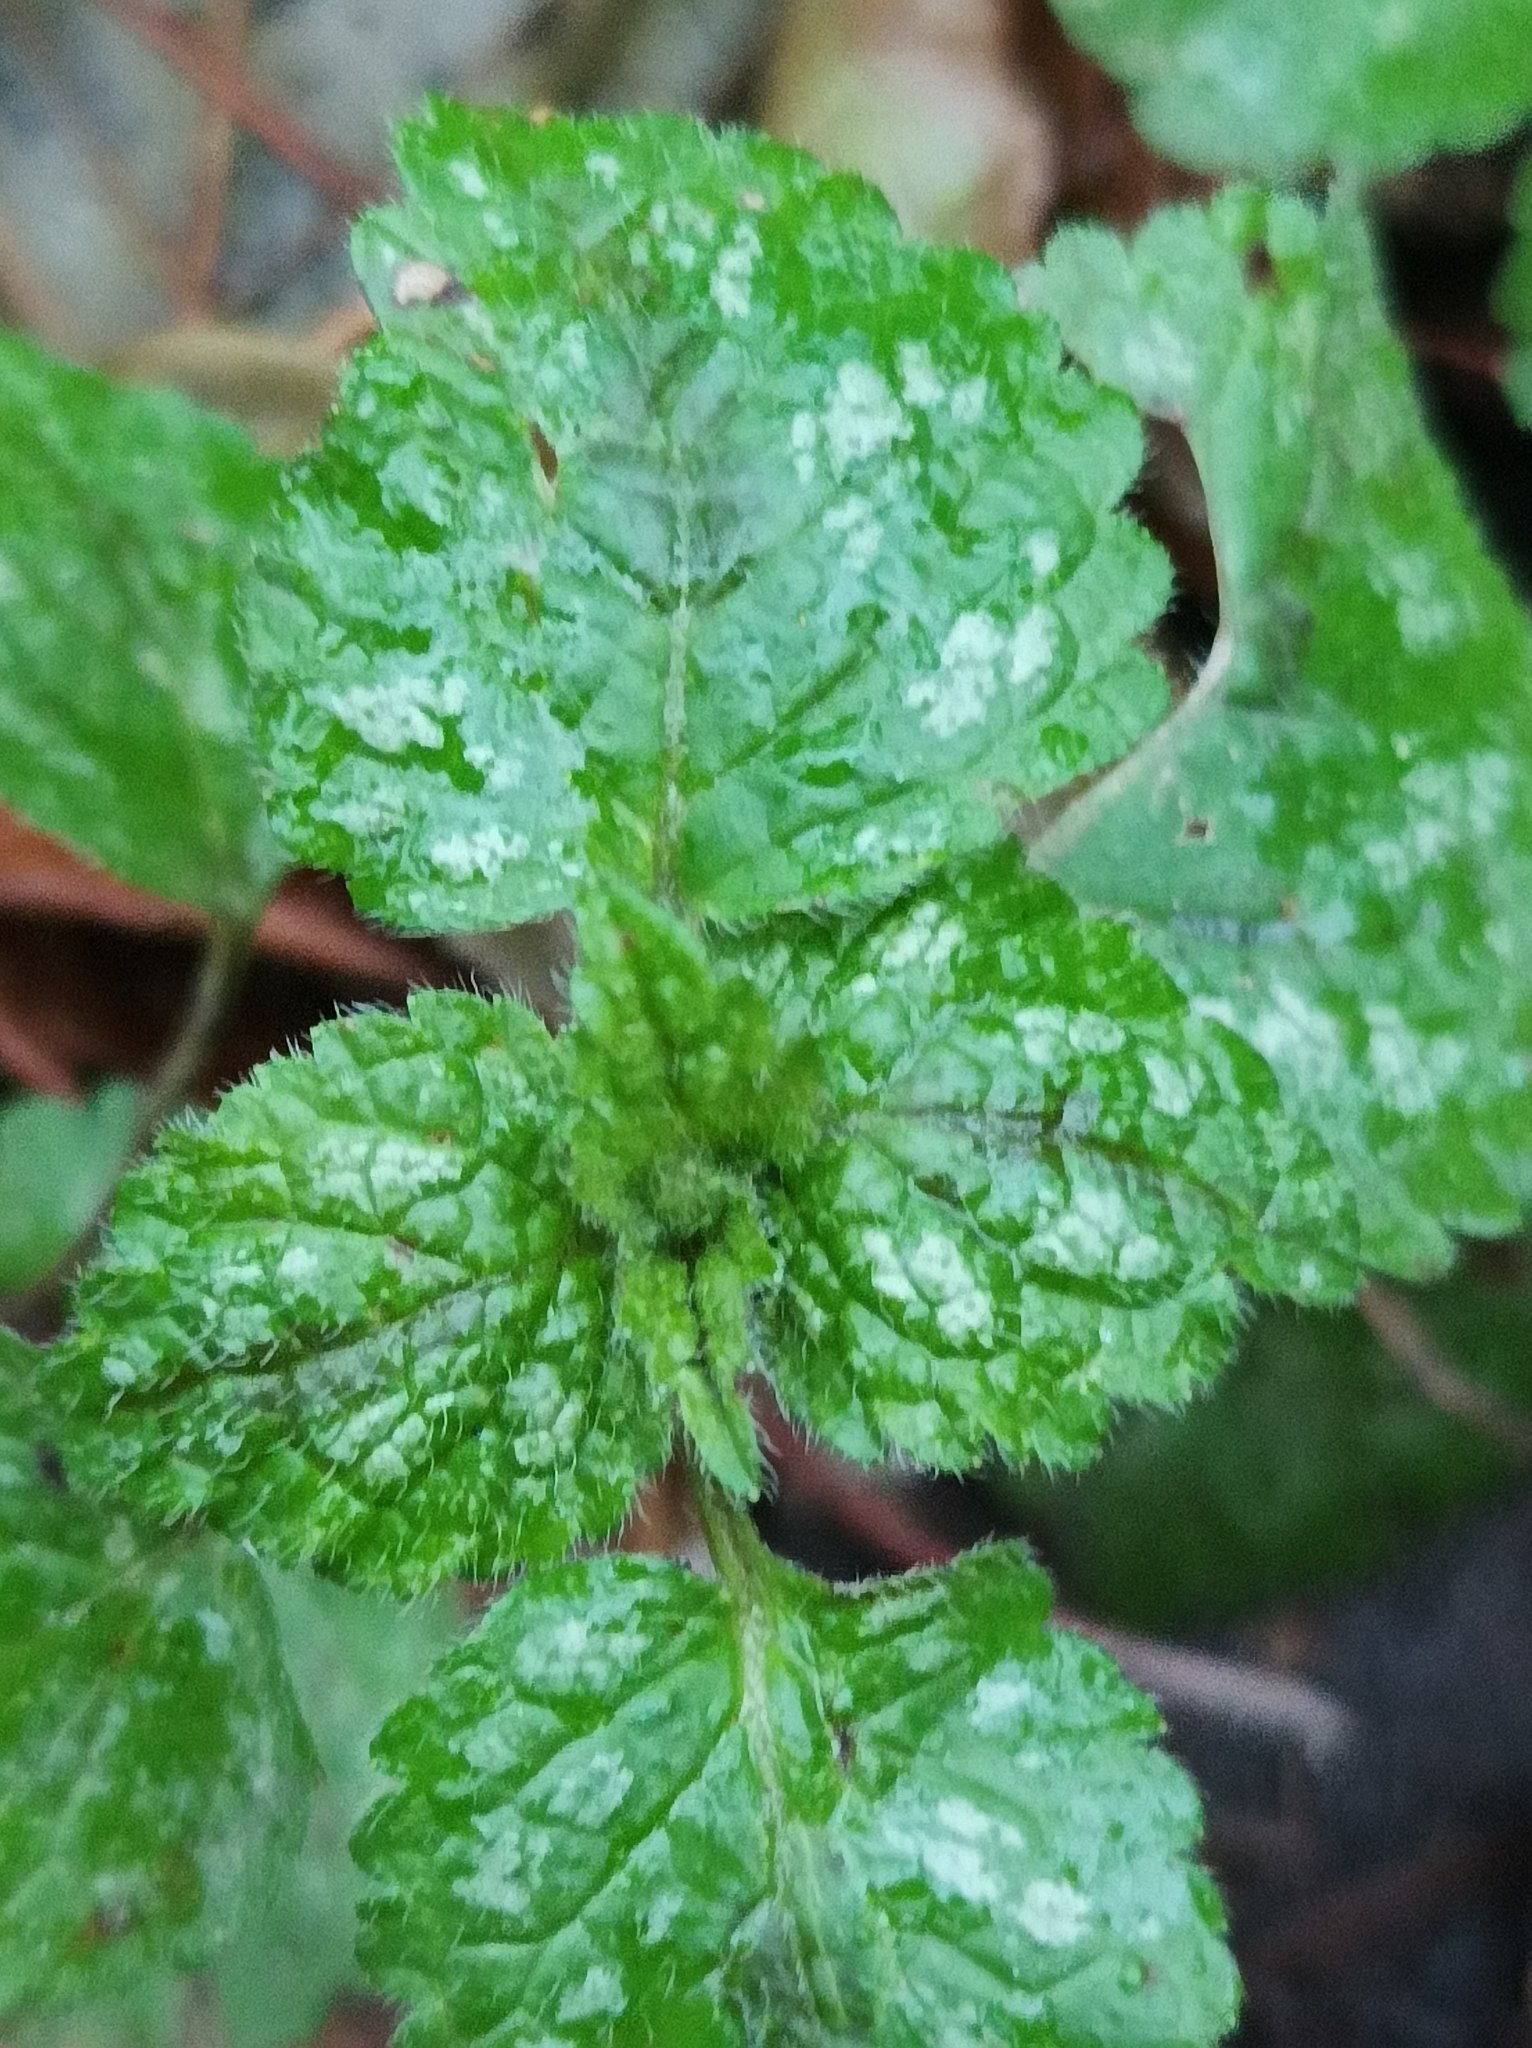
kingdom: Plantae
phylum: Tracheophyta
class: Magnoliopsida
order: Lamiales
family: Lamiaceae
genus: Lamium
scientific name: Lamium galeobdolon
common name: Yellow archangel
